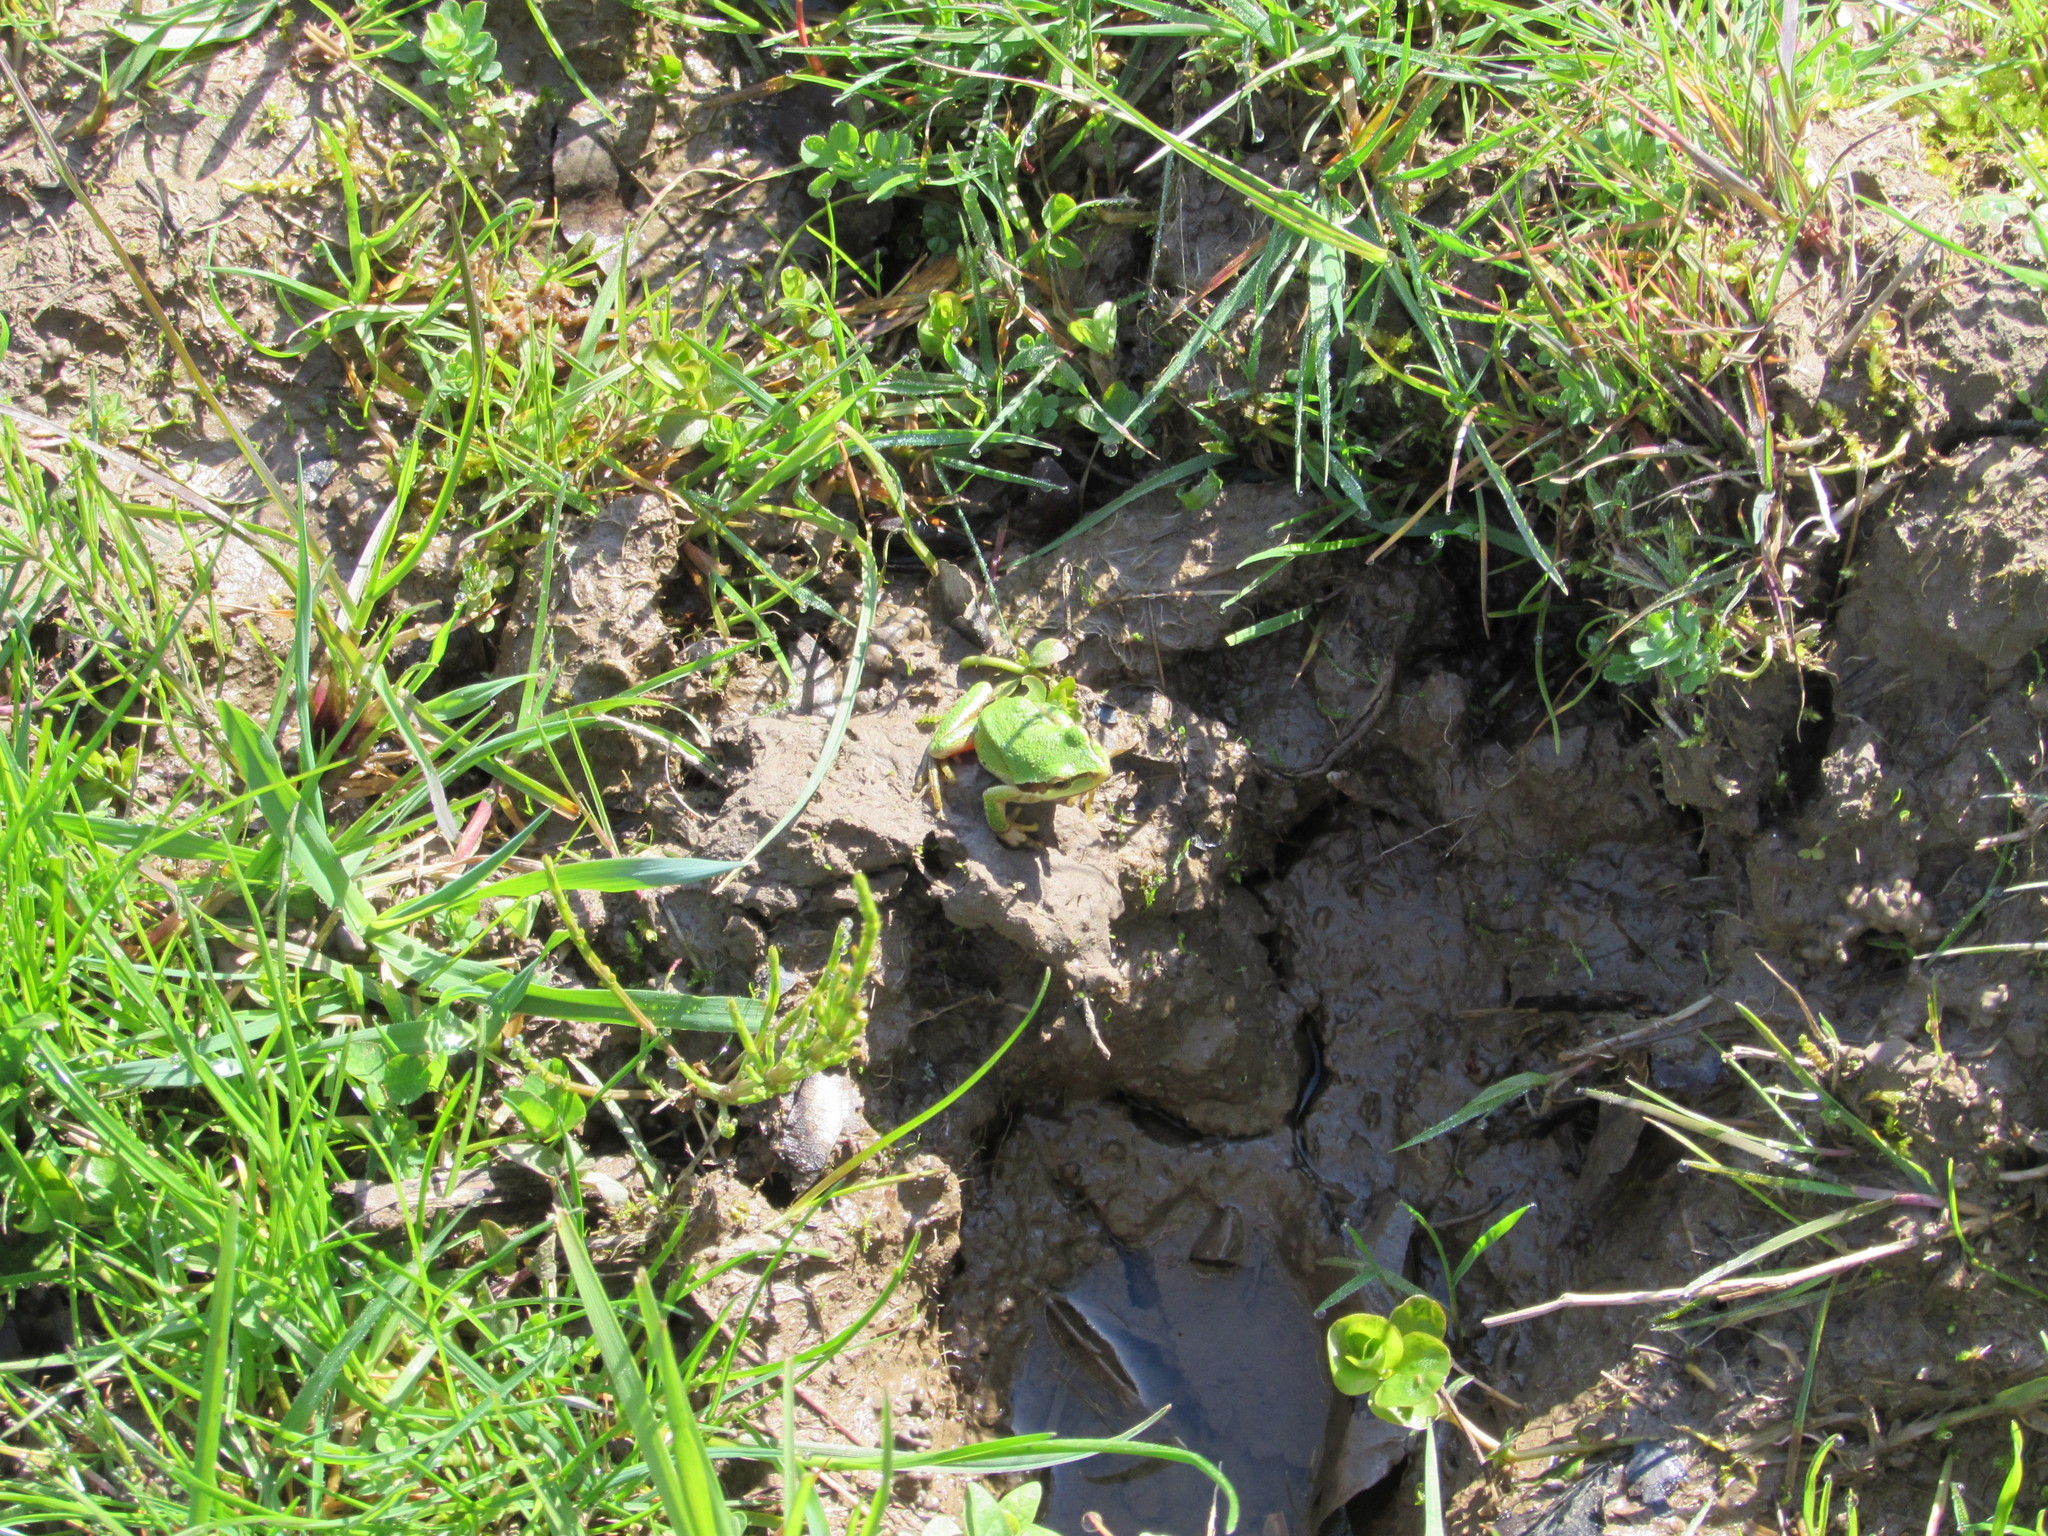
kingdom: Animalia
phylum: Chordata
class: Amphibia
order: Anura
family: Hylidae
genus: Pseudacris
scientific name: Pseudacris regilla
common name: Pacific chorus frog
